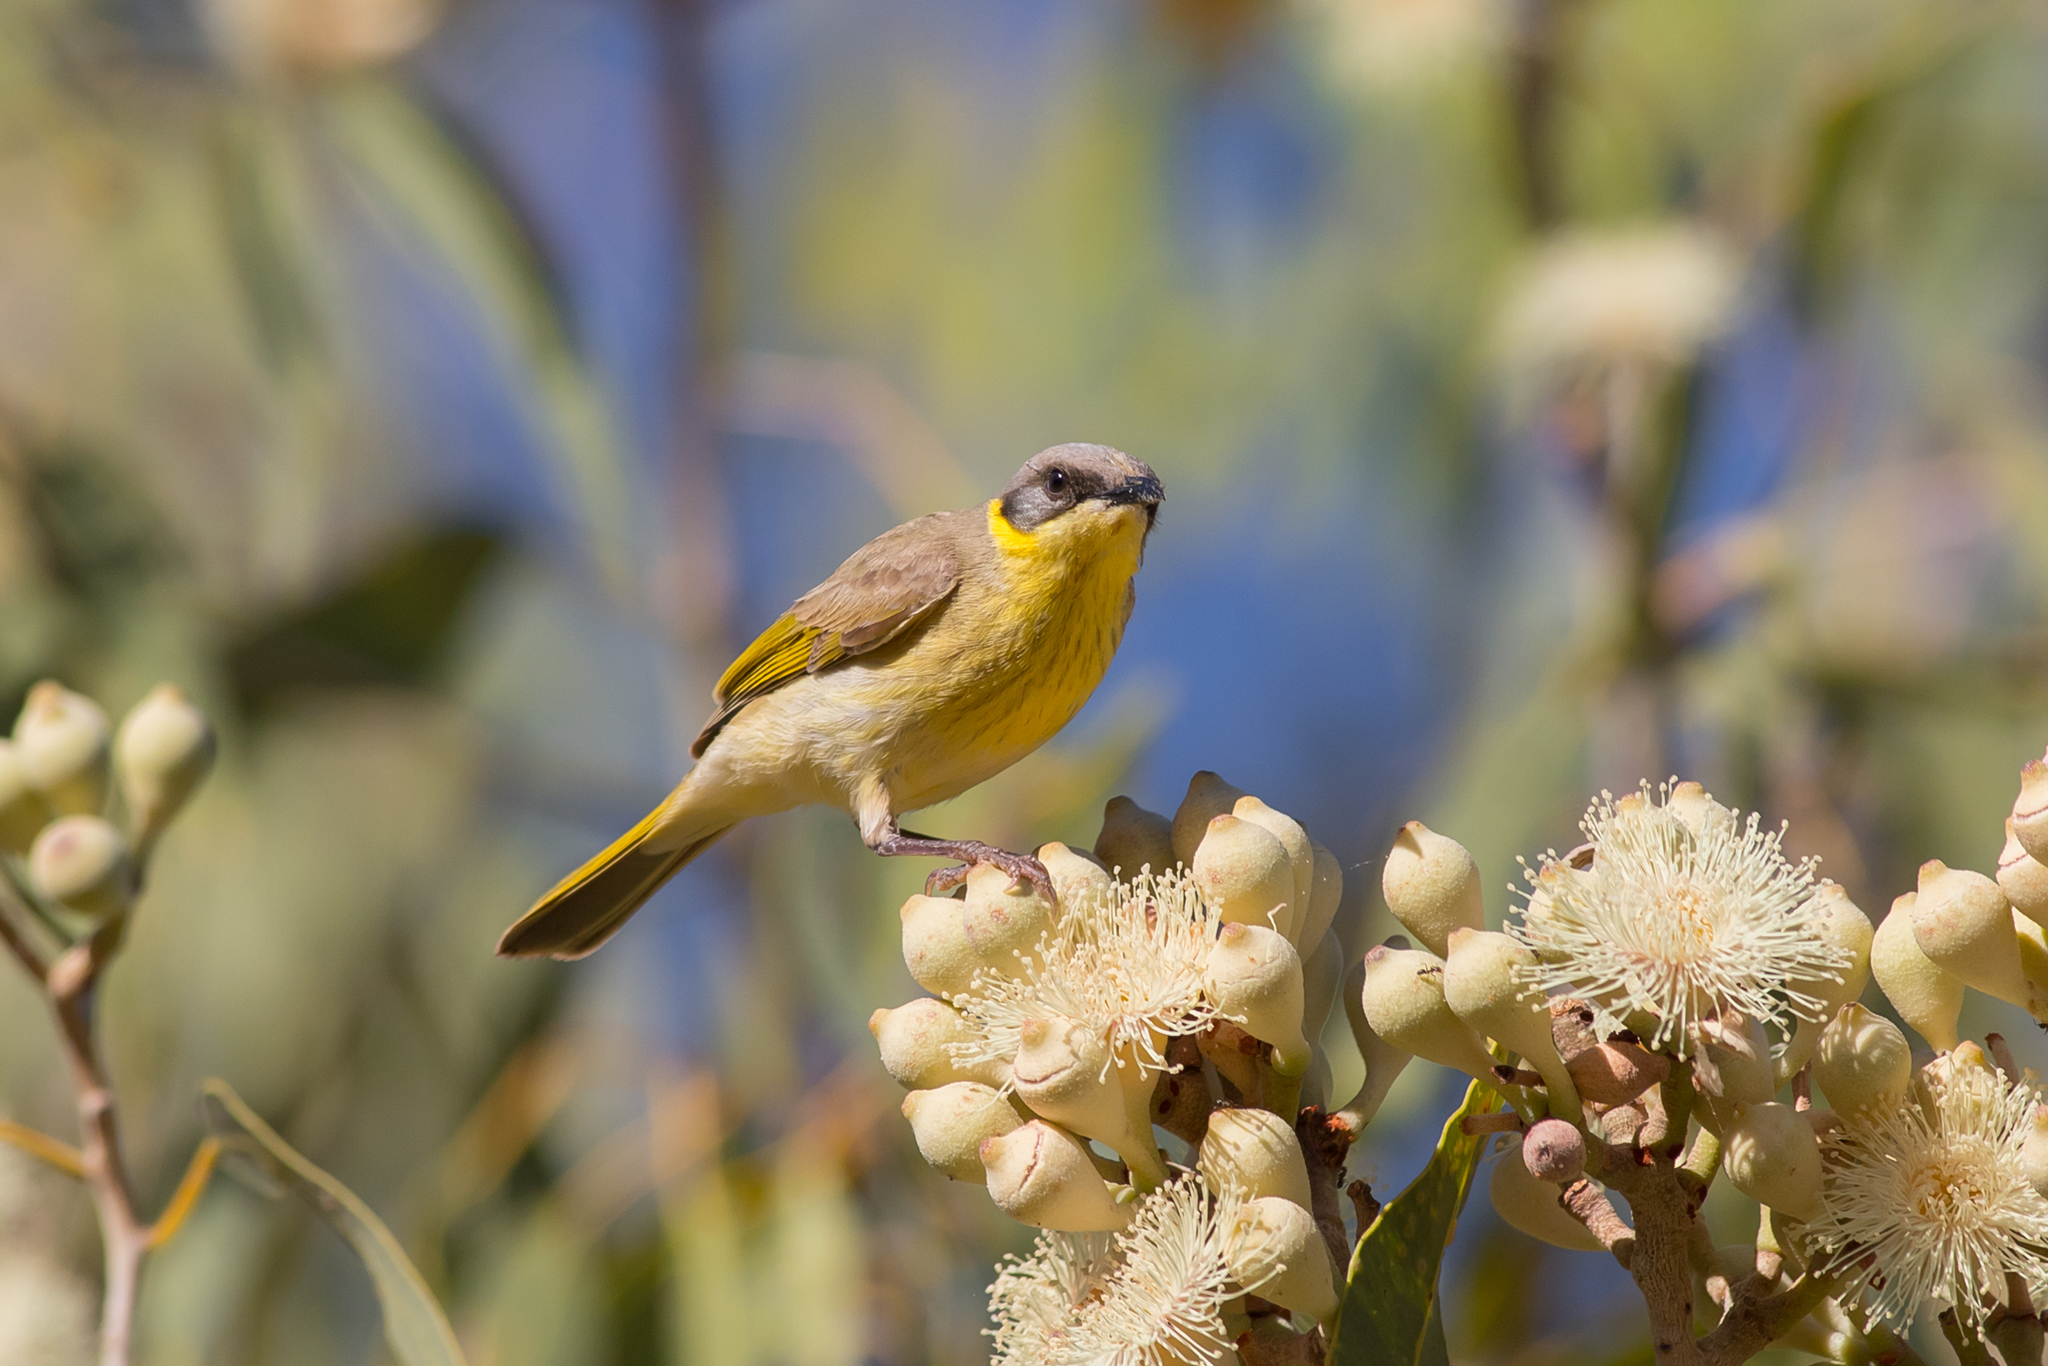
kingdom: Animalia
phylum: Chordata
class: Aves
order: Passeriformes
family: Meliphagidae
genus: Ptilotula
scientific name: Ptilotula keartlandi
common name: Grey-headed honeyeater
